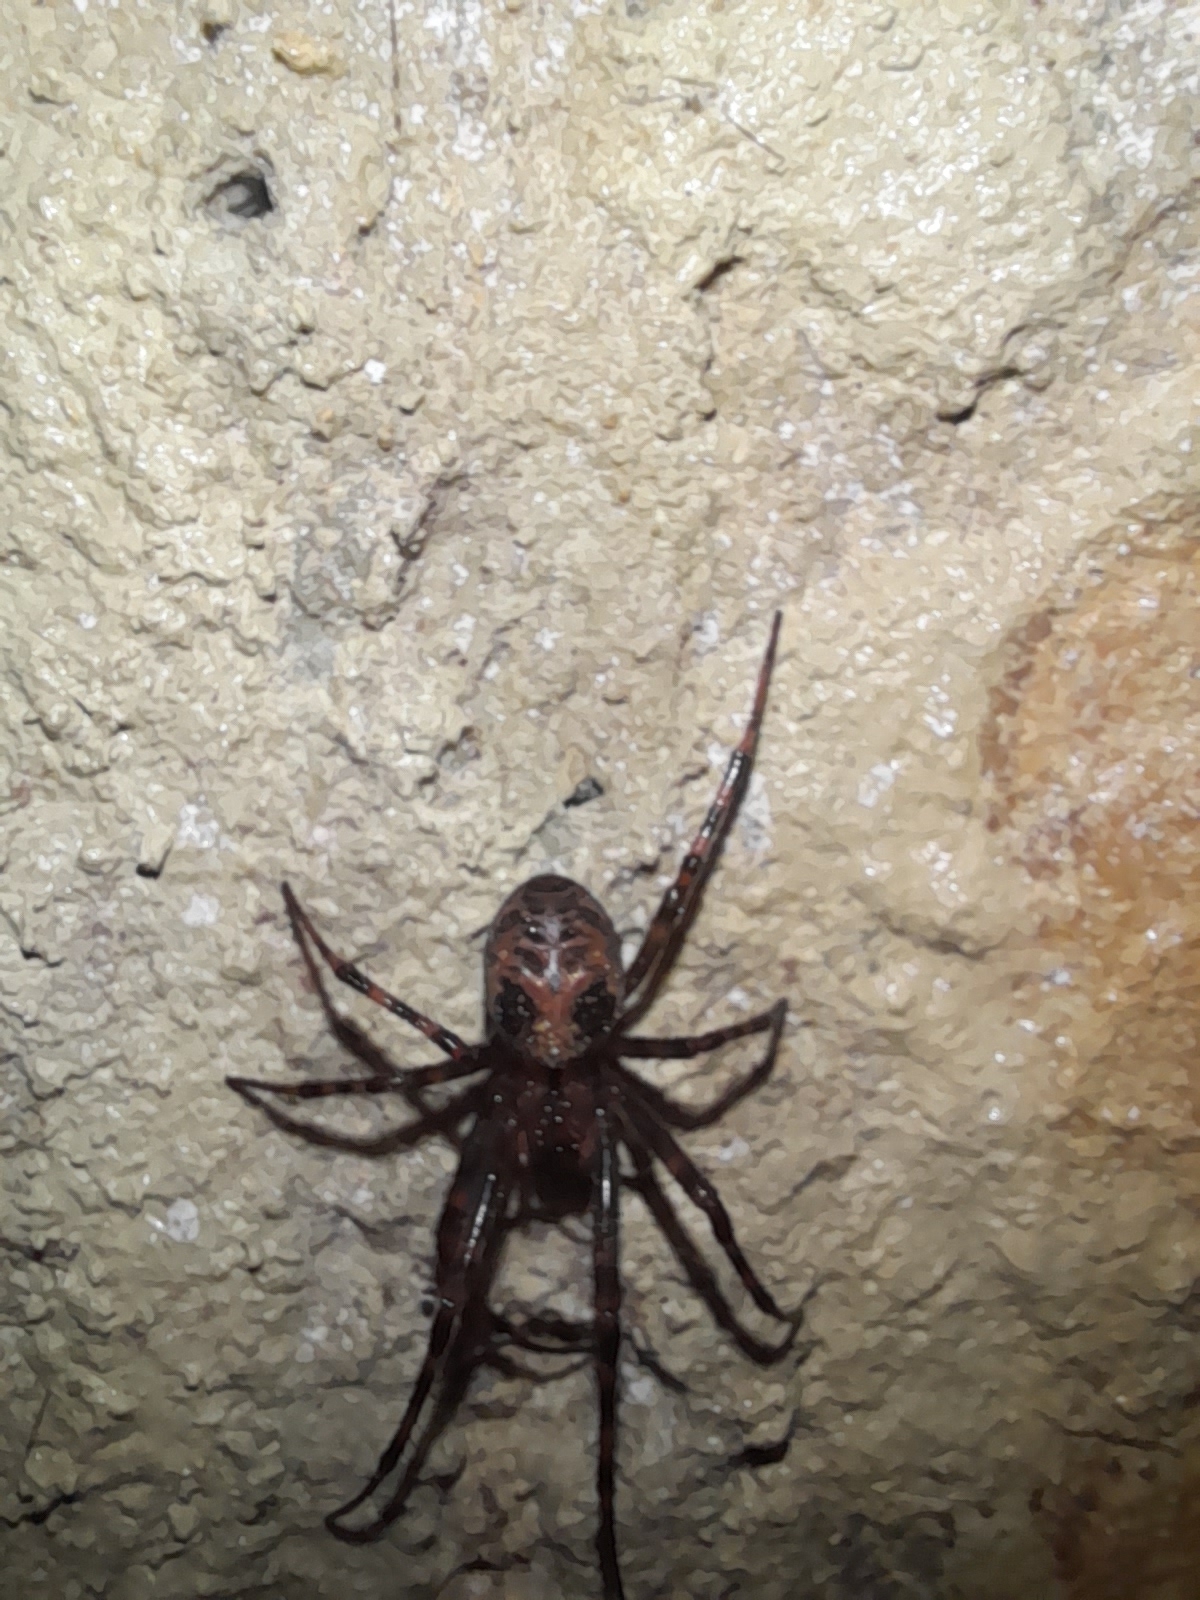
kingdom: Animalia
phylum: Arthropoda
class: Arachnida
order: Araneae
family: Tetragnathidae
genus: Meta
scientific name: Meta menardi
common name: Cave spider
